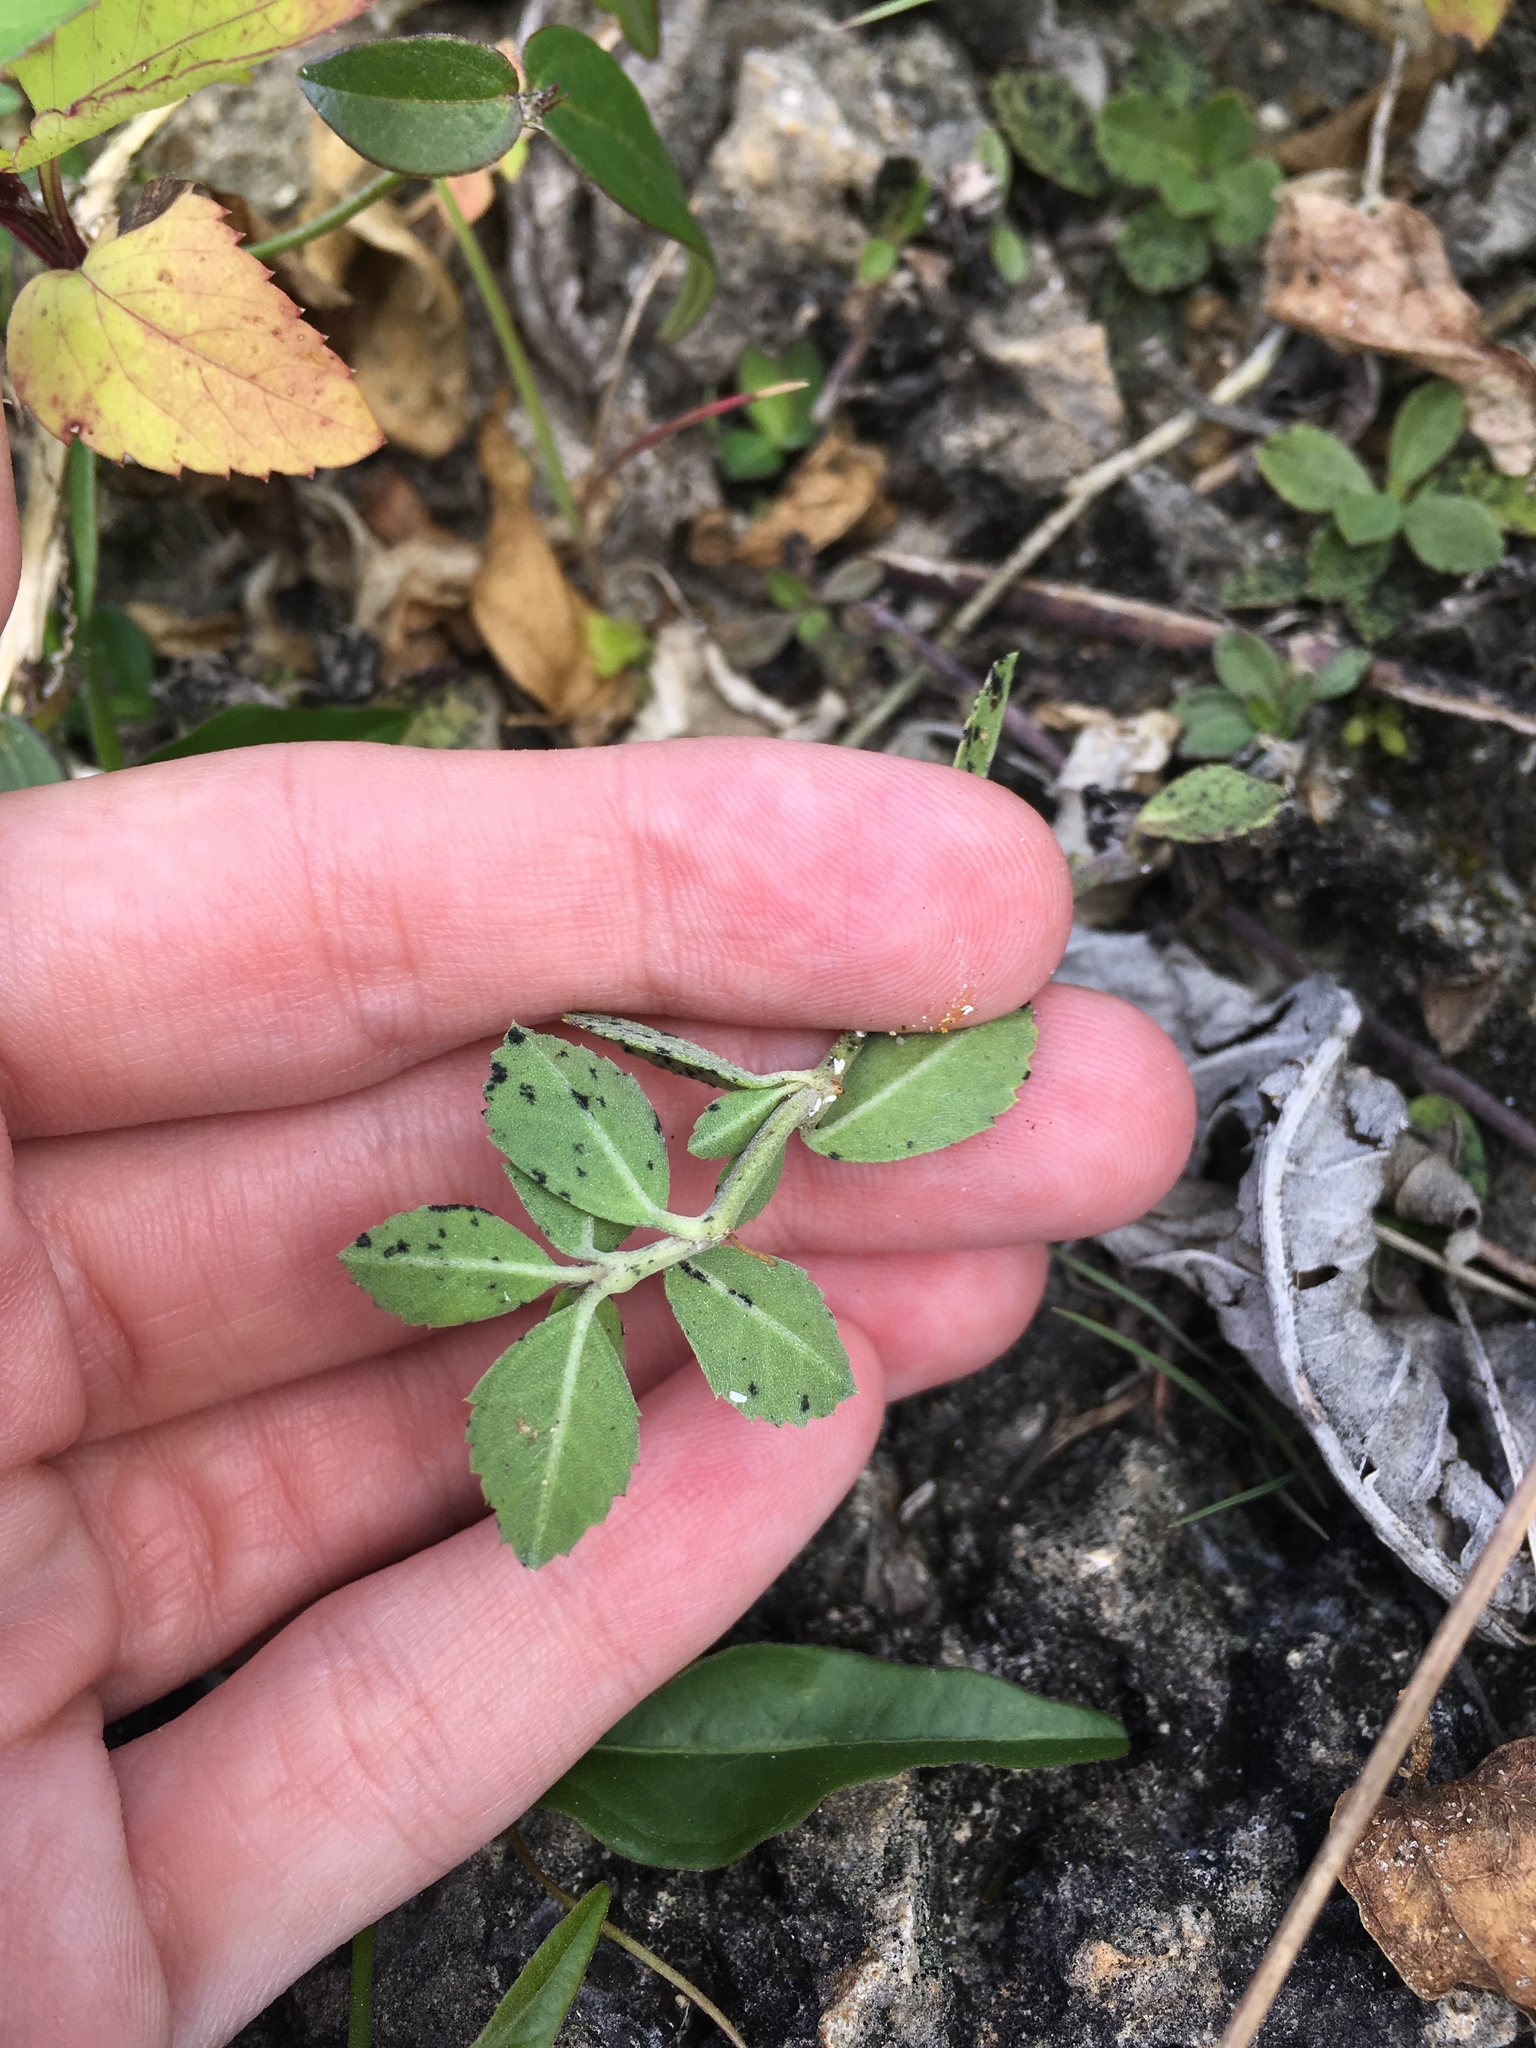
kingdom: Plantae
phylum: Tracheophyta
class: Magnoliopsida
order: Lamiales
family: Verbenaceae
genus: Phyla
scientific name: Phyla nodiflora
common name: Frogfruit
